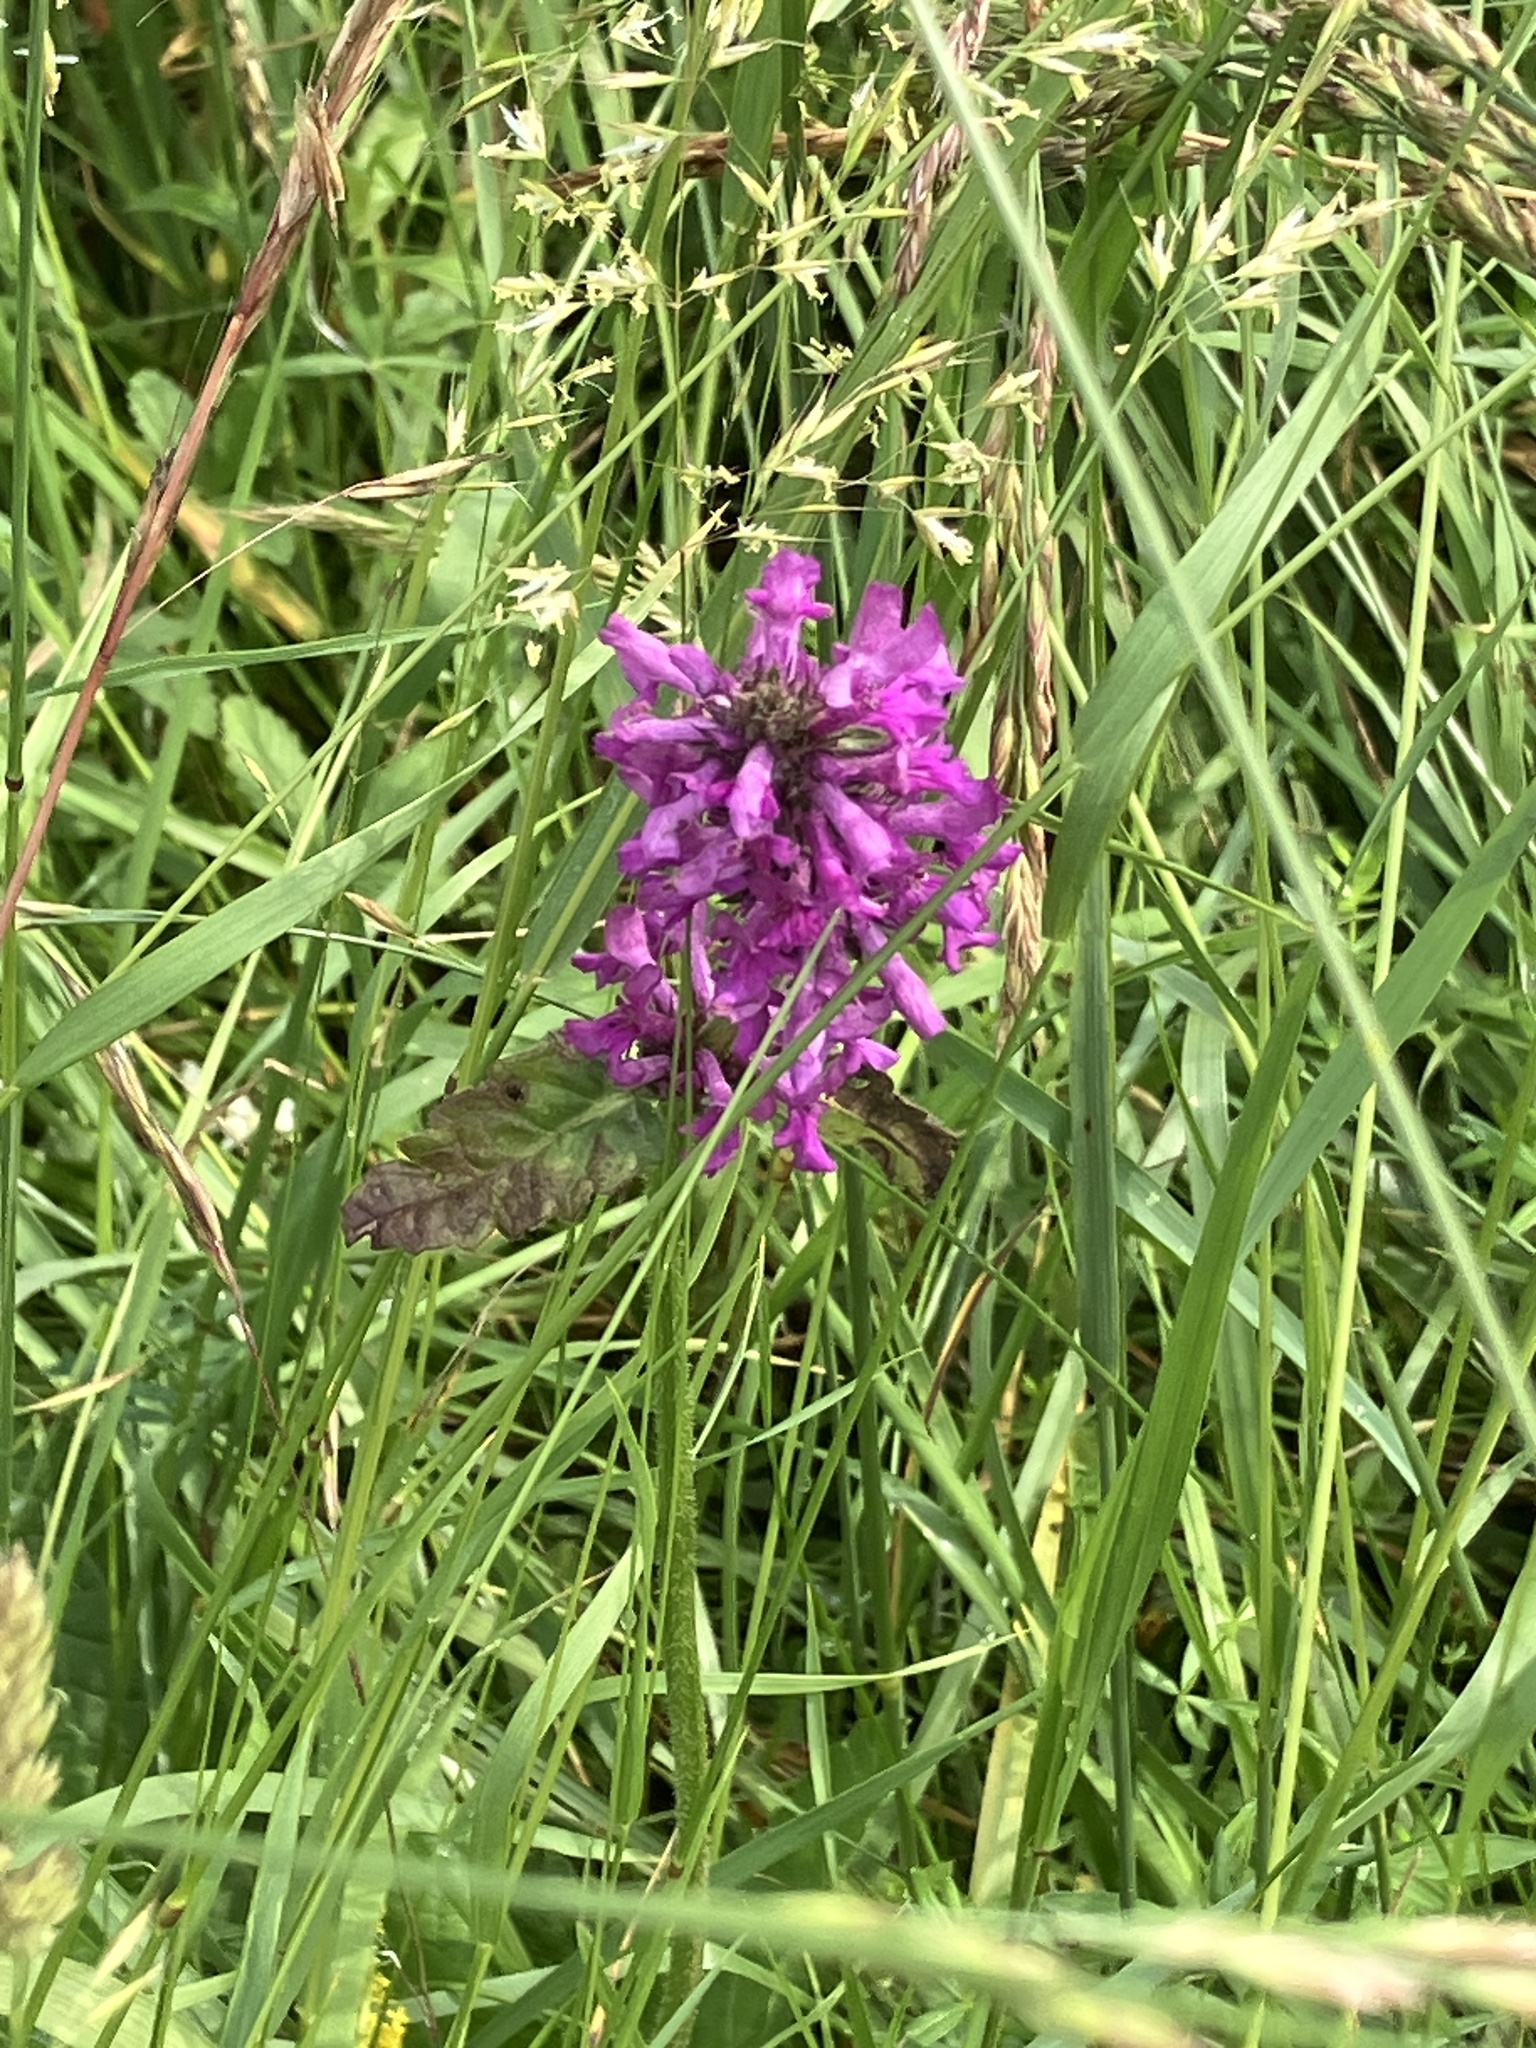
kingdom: Plantae
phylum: Tracheophyta
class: Magnoliopsida
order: Lamiales
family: Lamiaceae
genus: Betonica
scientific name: Betonica officinalis
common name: Bishop's-wort
